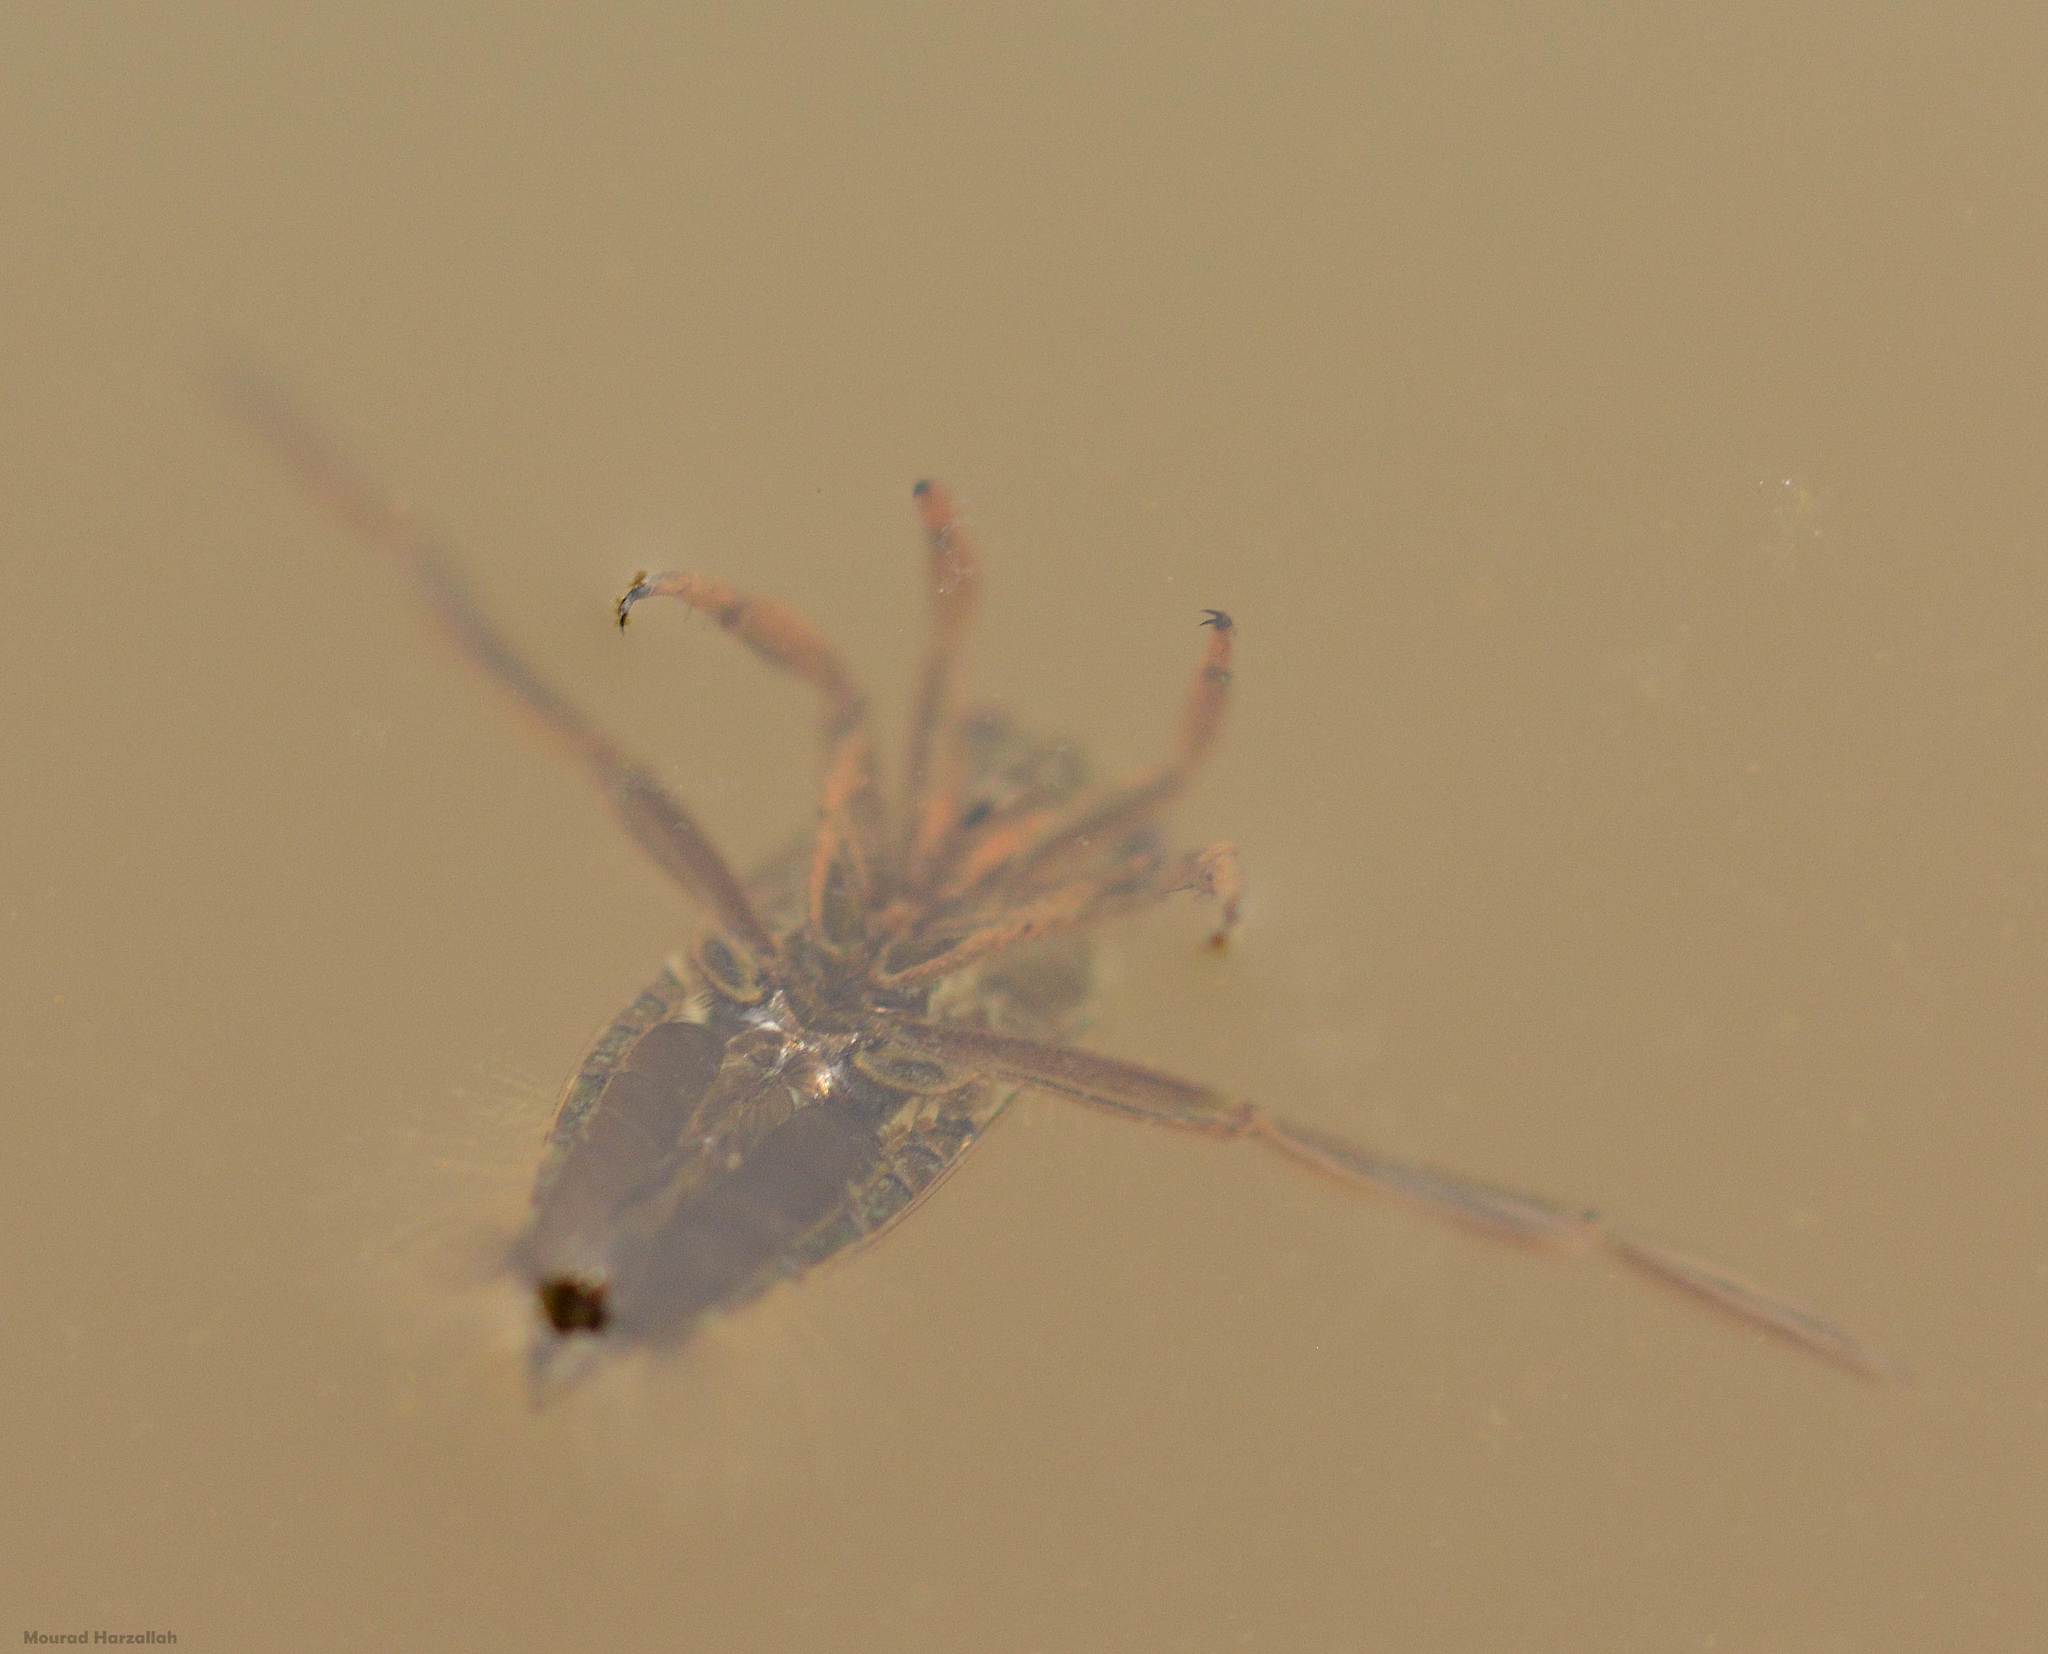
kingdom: Animalia
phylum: Arthropoda
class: Insecta
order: Hemiptera
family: Notonectidae
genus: Notonecta
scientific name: Notonecta
